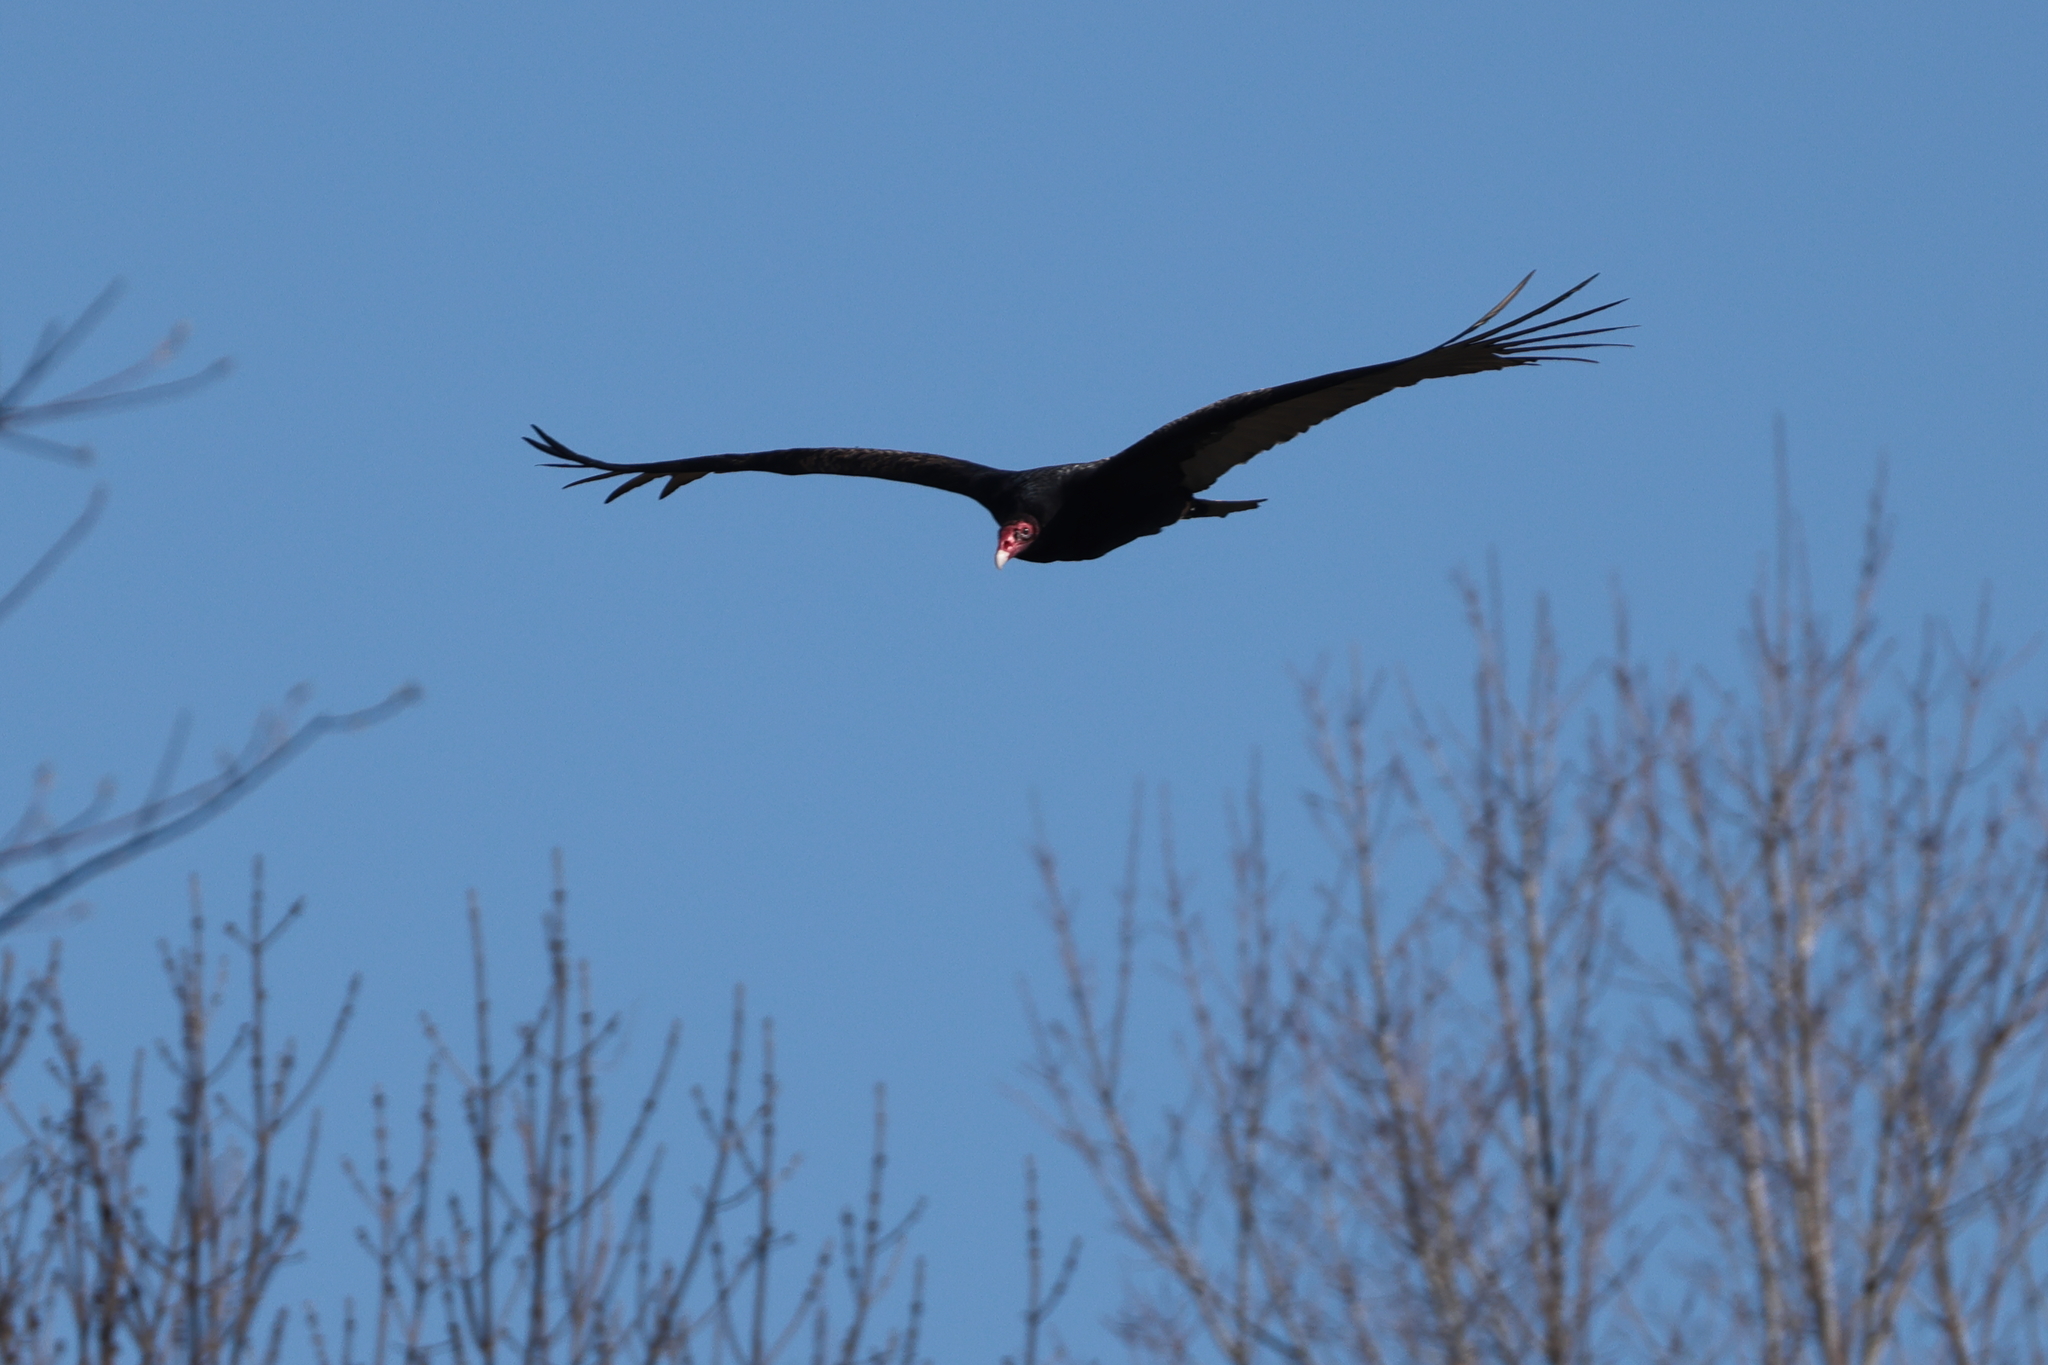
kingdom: Animalia
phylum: Chordata
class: Aves
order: Accipitriformes
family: Cathartidae
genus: Cathartes
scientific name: Cathartes aura
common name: Turkey vulture
